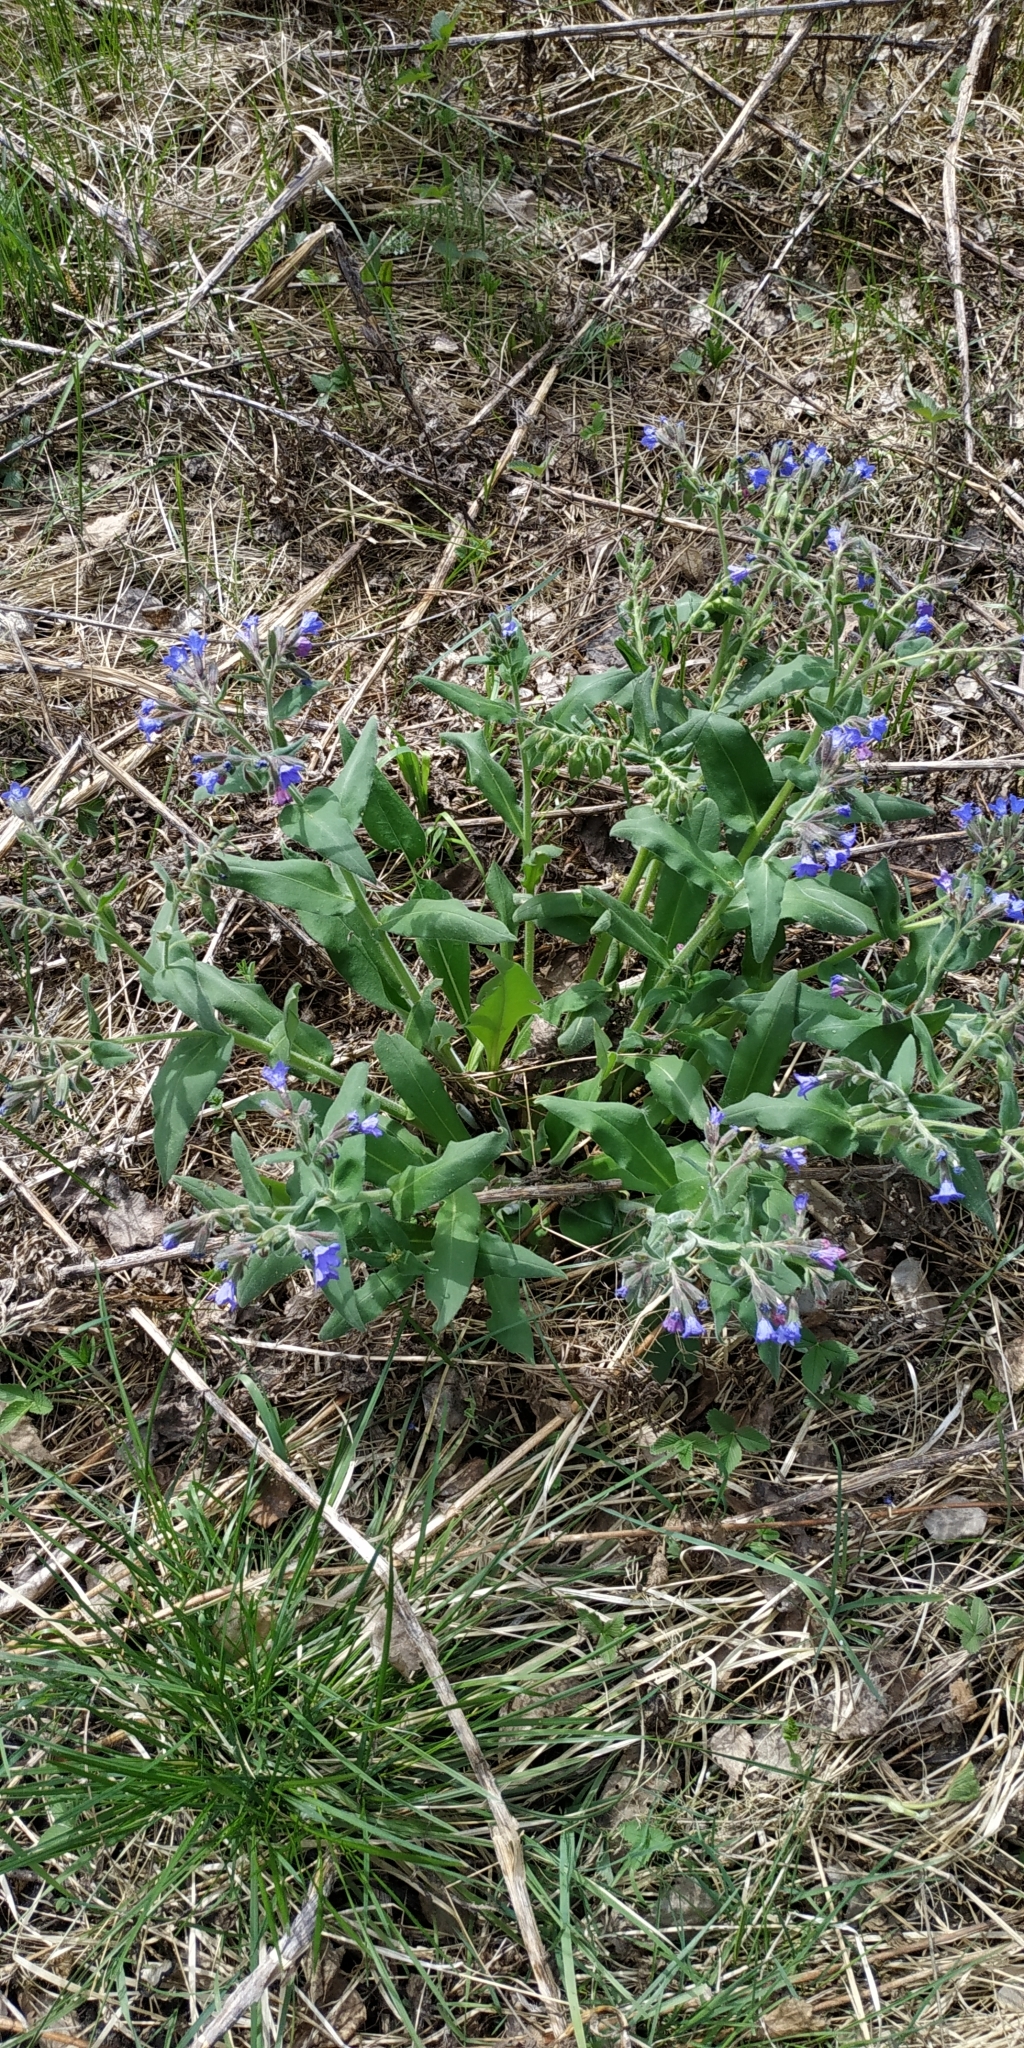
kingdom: Plantae
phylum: Tracheophyta
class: Magnoliopsida
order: Boraginales
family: Boraginaceae
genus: Pulmonaria
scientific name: Pulmonaria mollis
